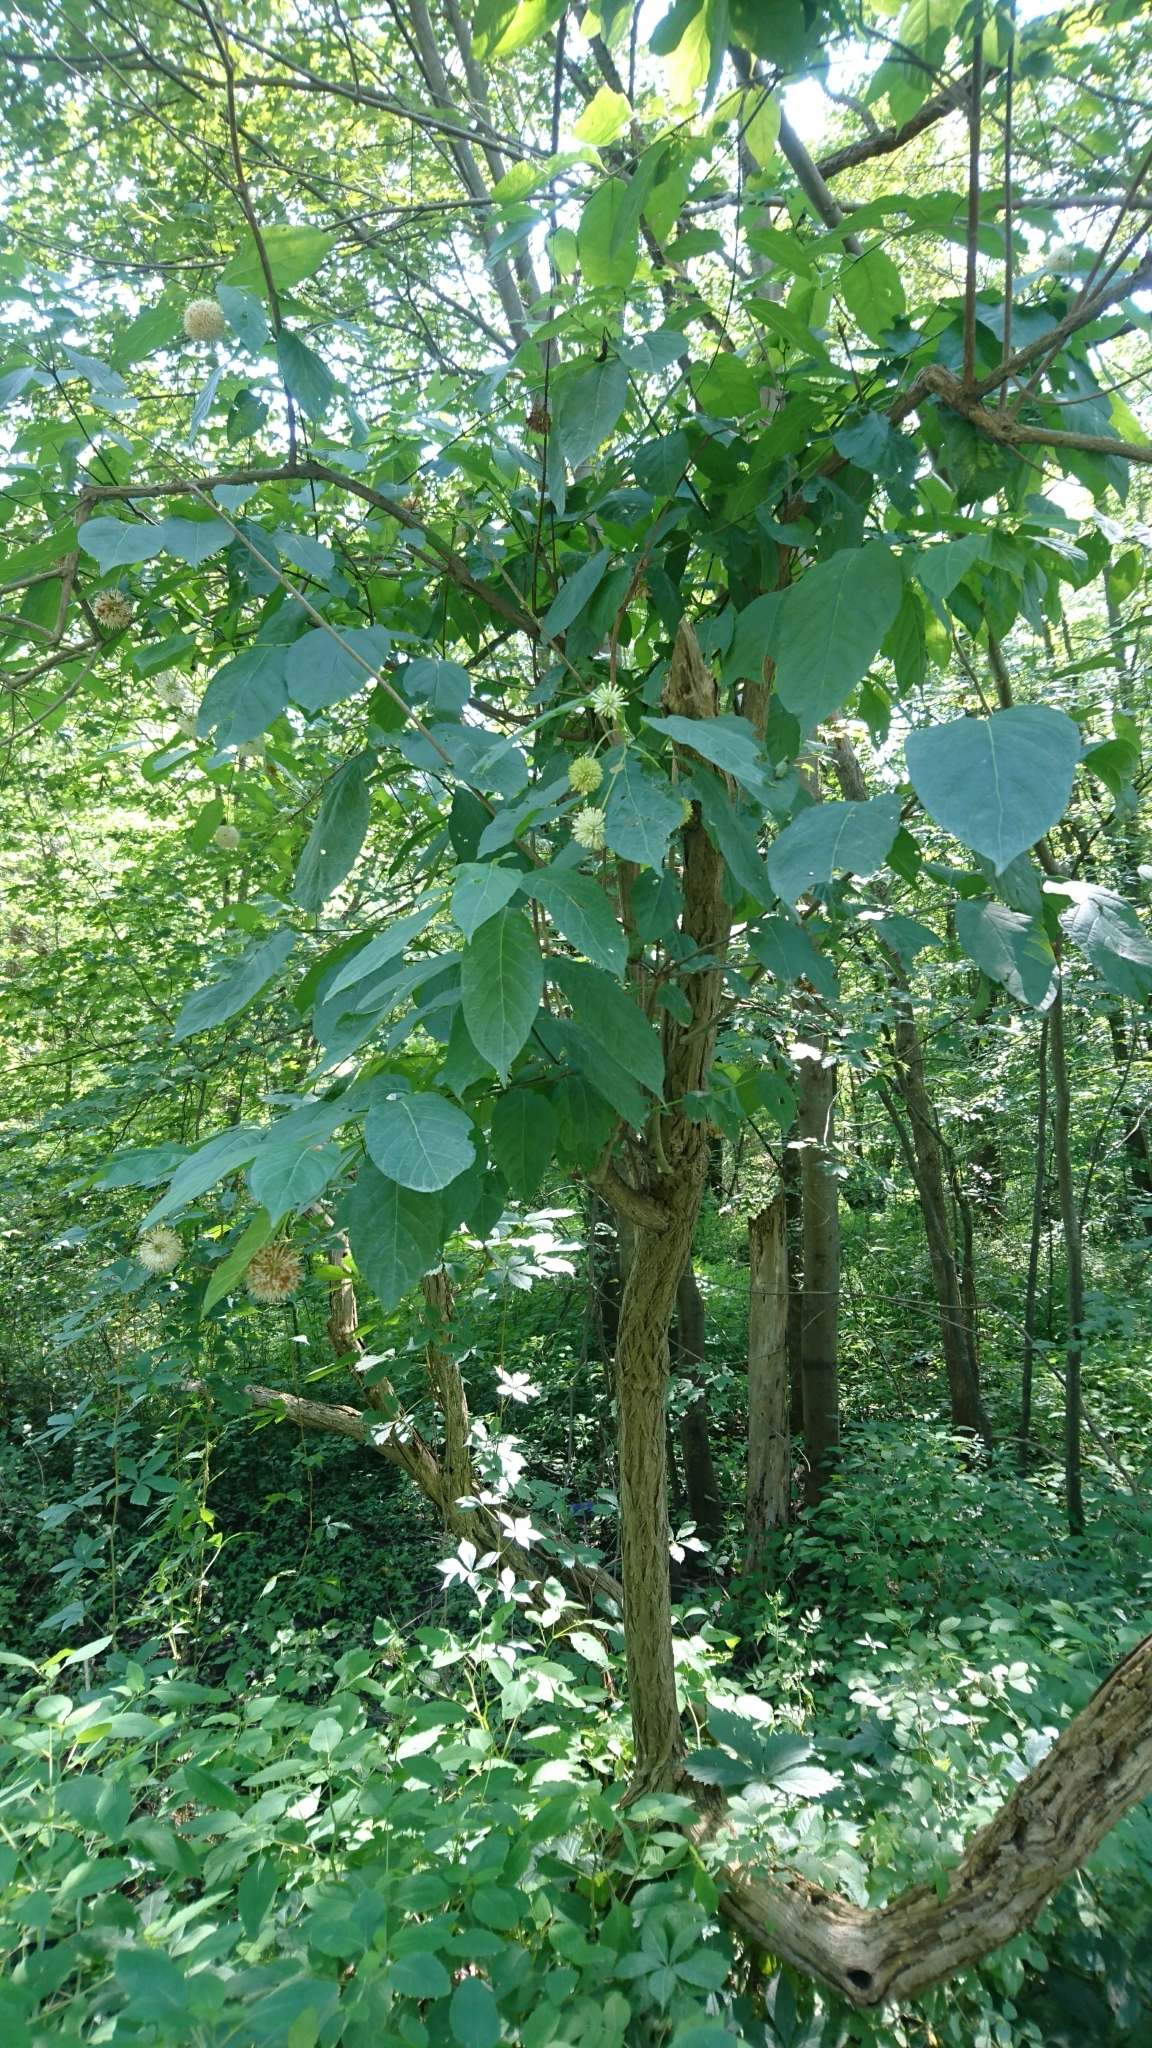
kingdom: Plantae
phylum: Tracheophyta
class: Magnoliopsida
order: Gentianales
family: Rubiaceae
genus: Cephalanthus
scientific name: Cephalanthus occidentalis
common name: Button-willow
